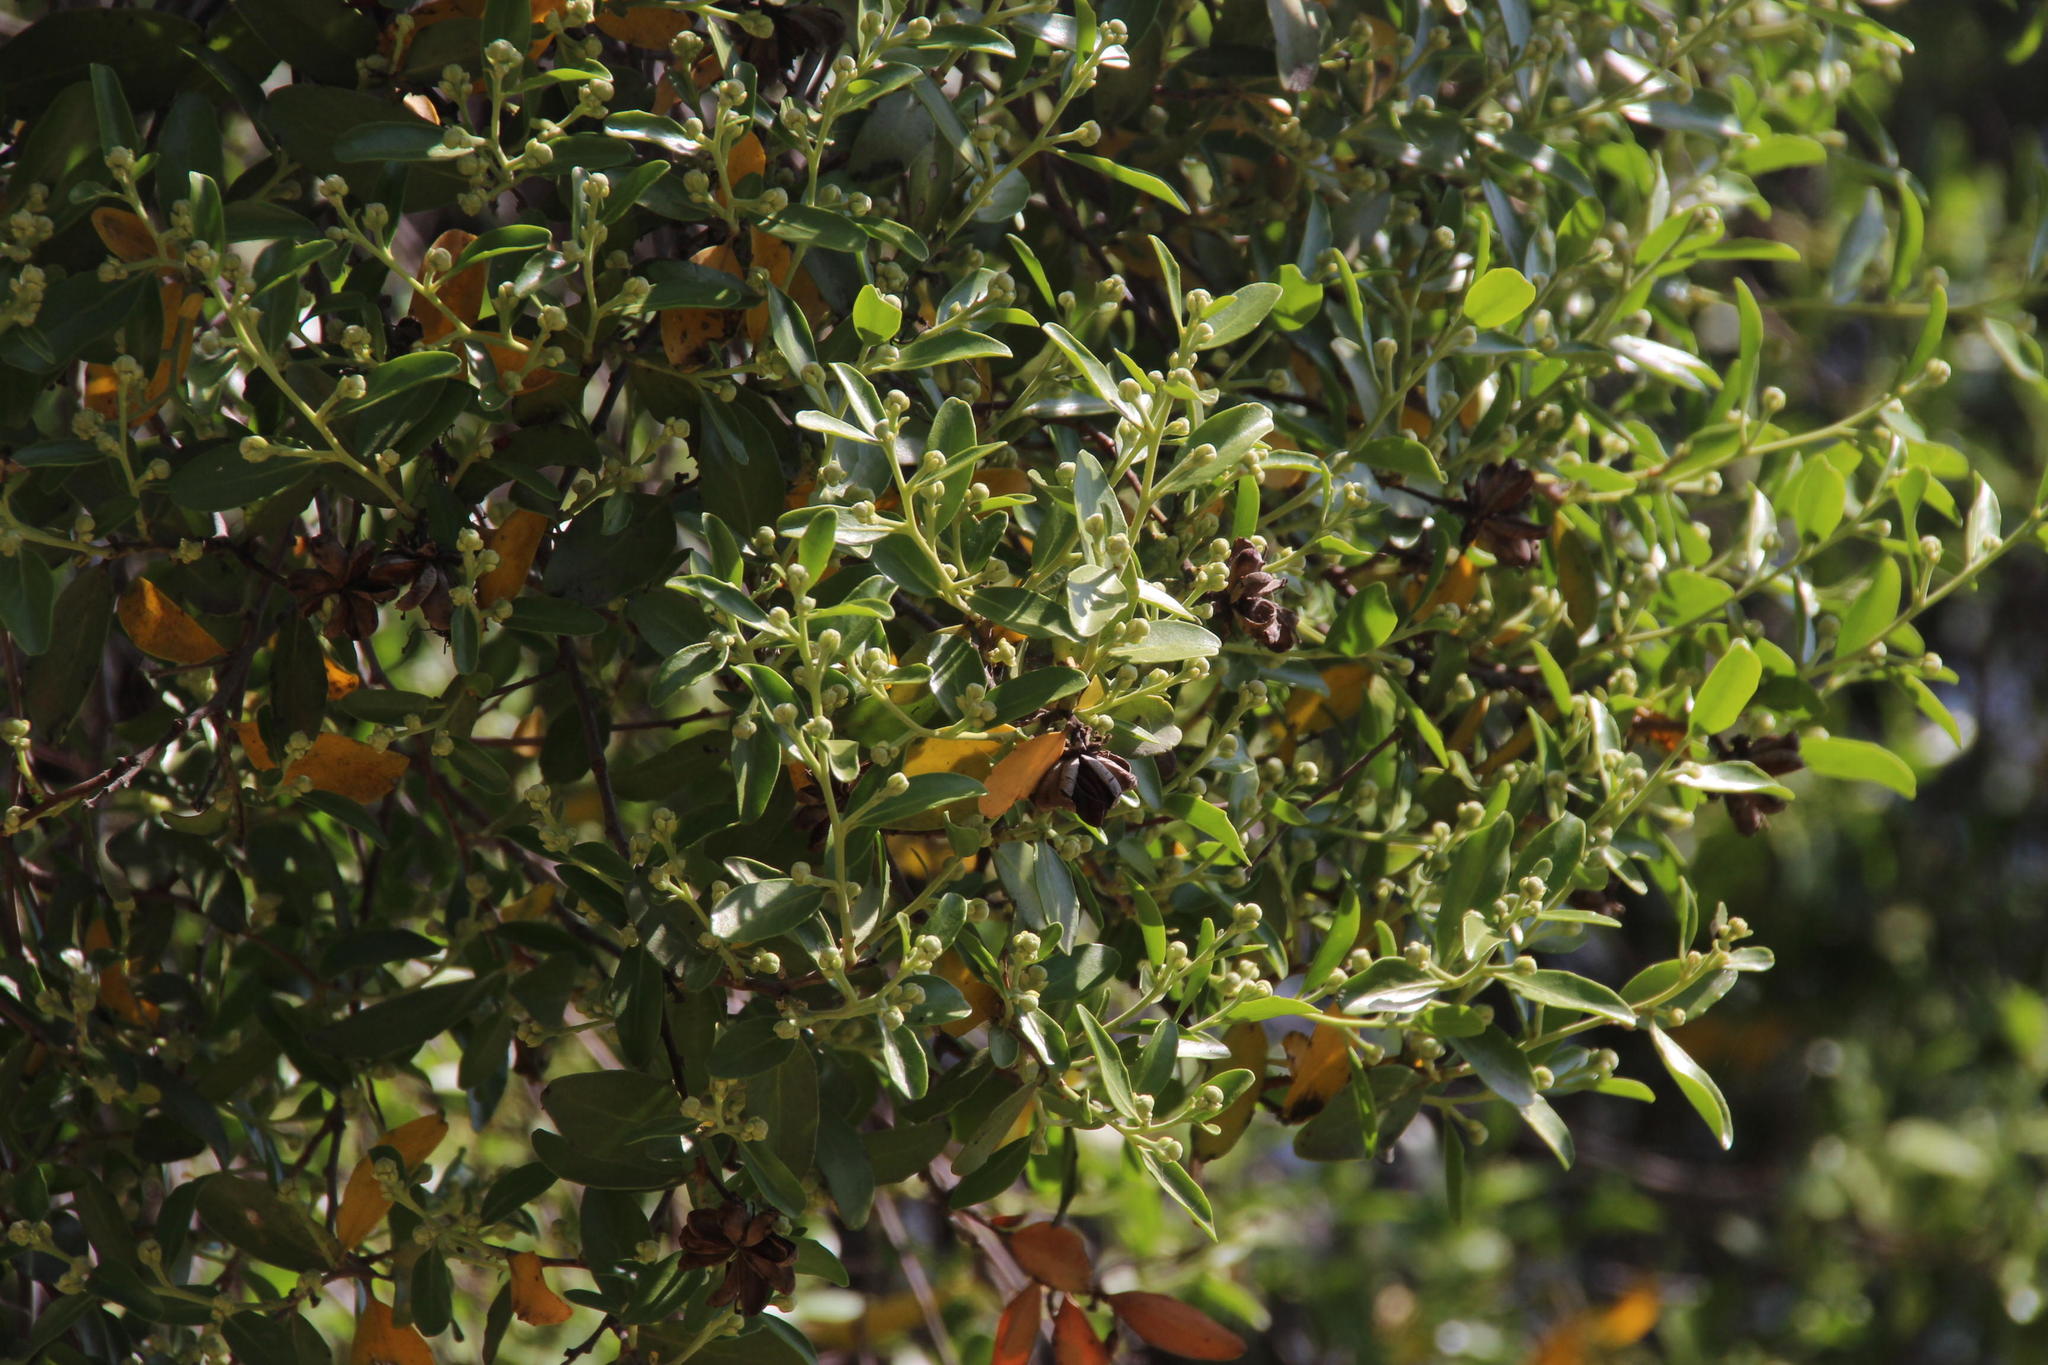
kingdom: Plantae
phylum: Tracheophyta
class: Magnoliopsida
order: Fabales
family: Quillajaceae
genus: Quillaja
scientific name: Quillaja saponaria
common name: Murillo's-bark
